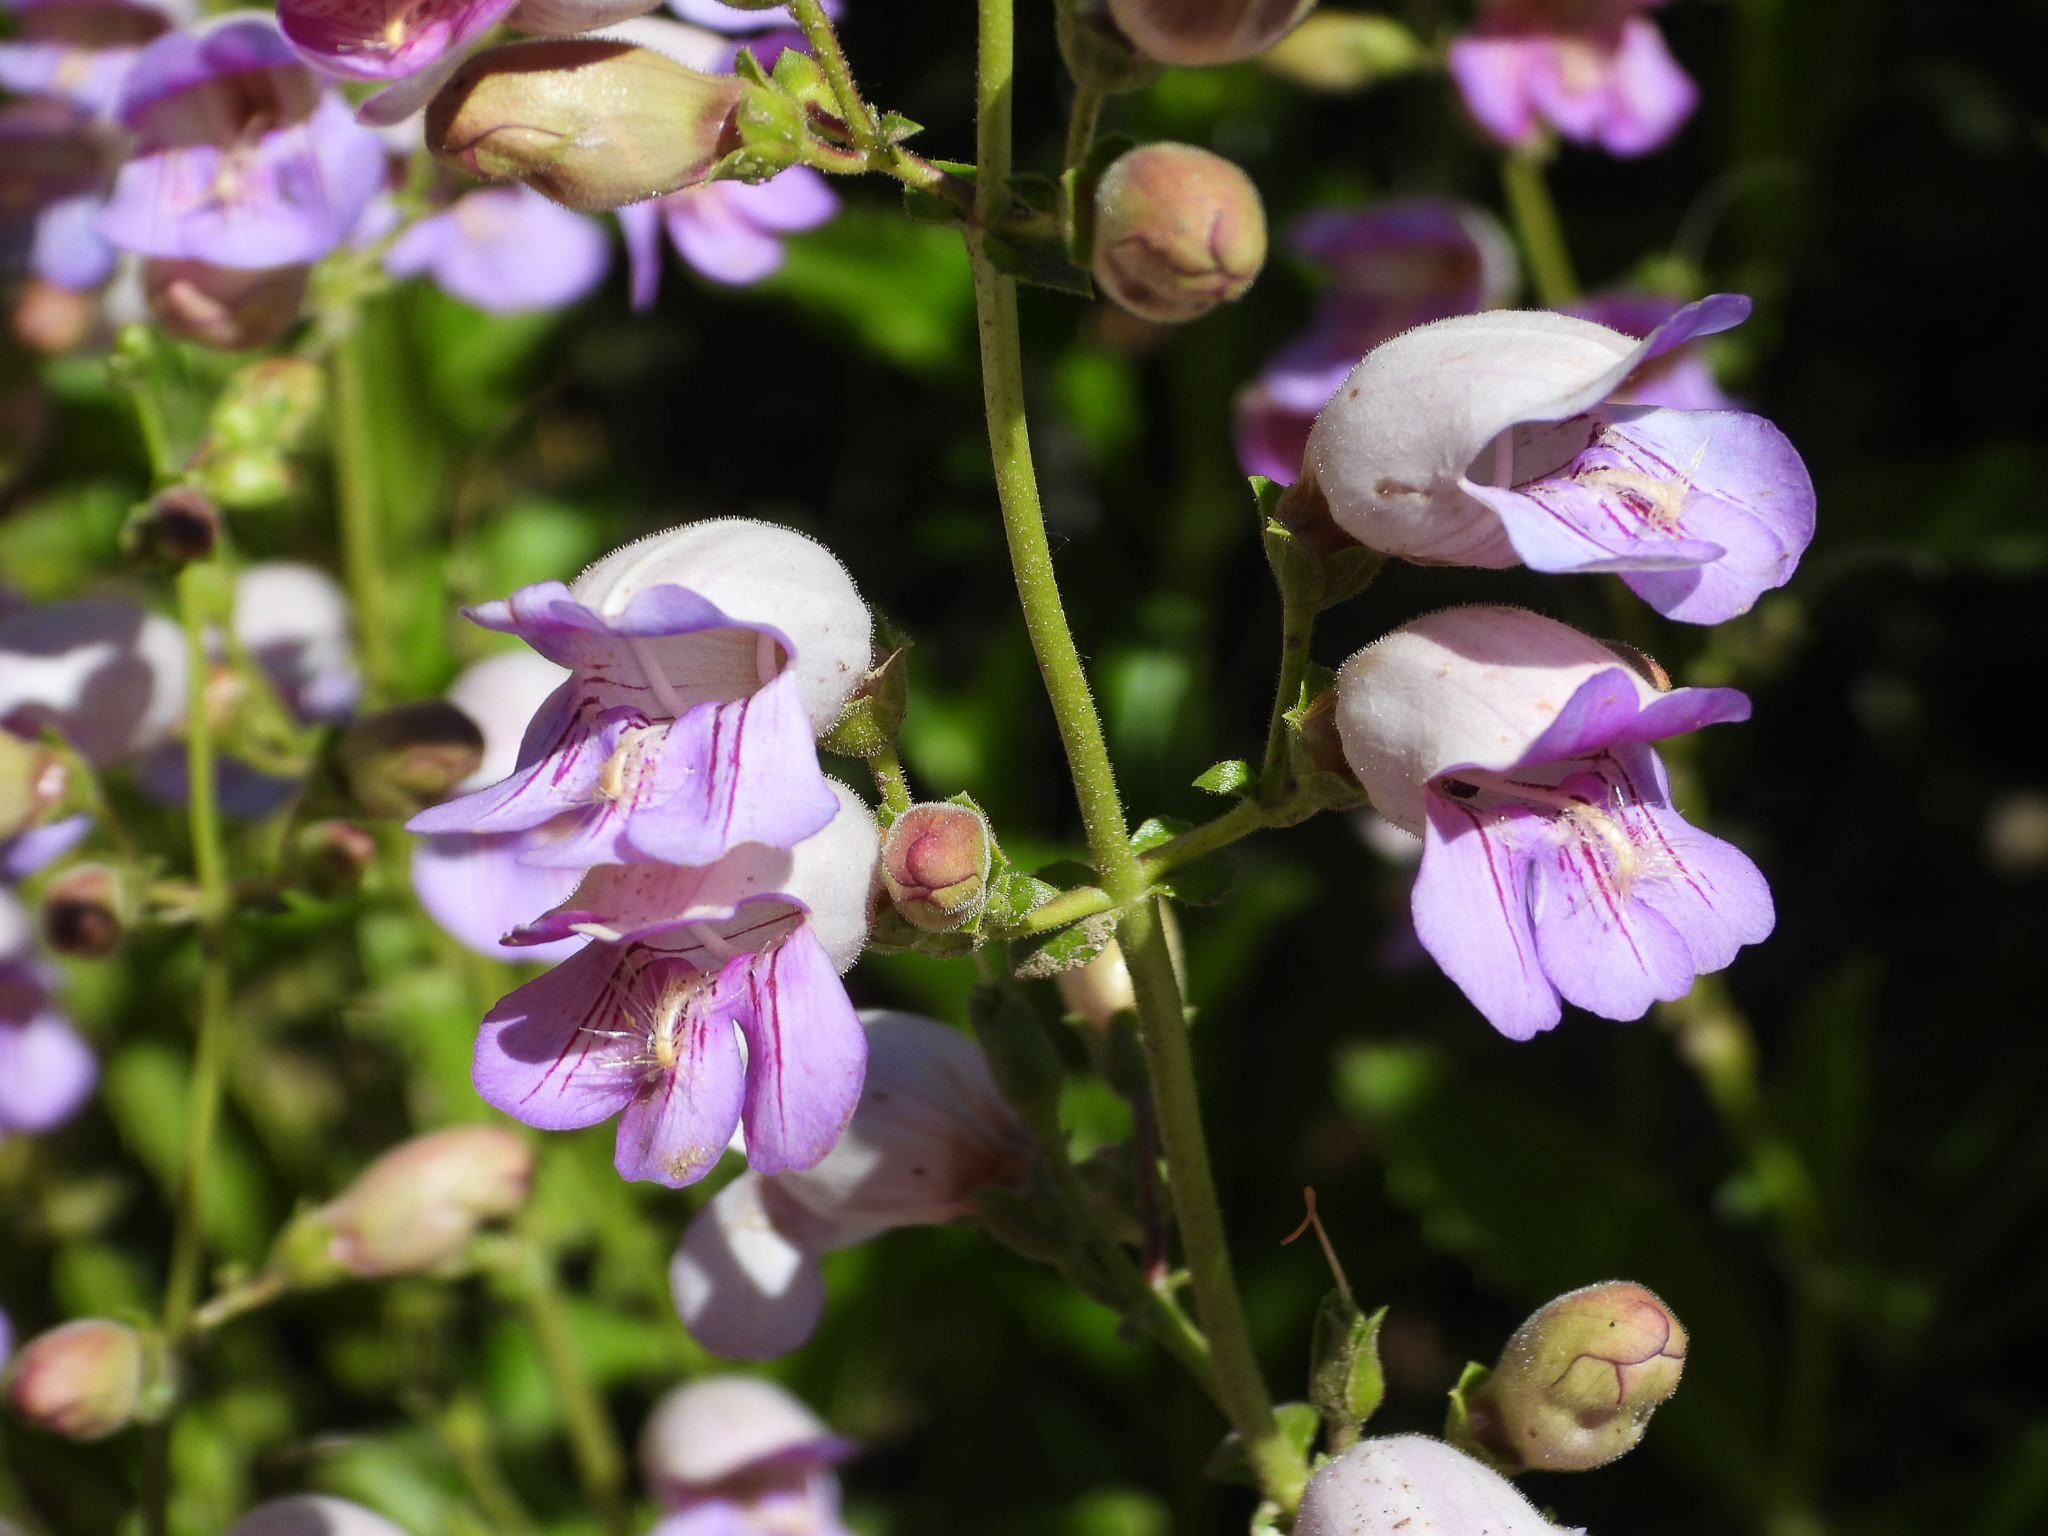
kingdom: Plantae
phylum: Tracheophyta
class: Magnoliopsida
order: Lamiales
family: Plantaginaceae
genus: Penstemon
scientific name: Penstemon grinnellii
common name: Grinnell's beardtongue
